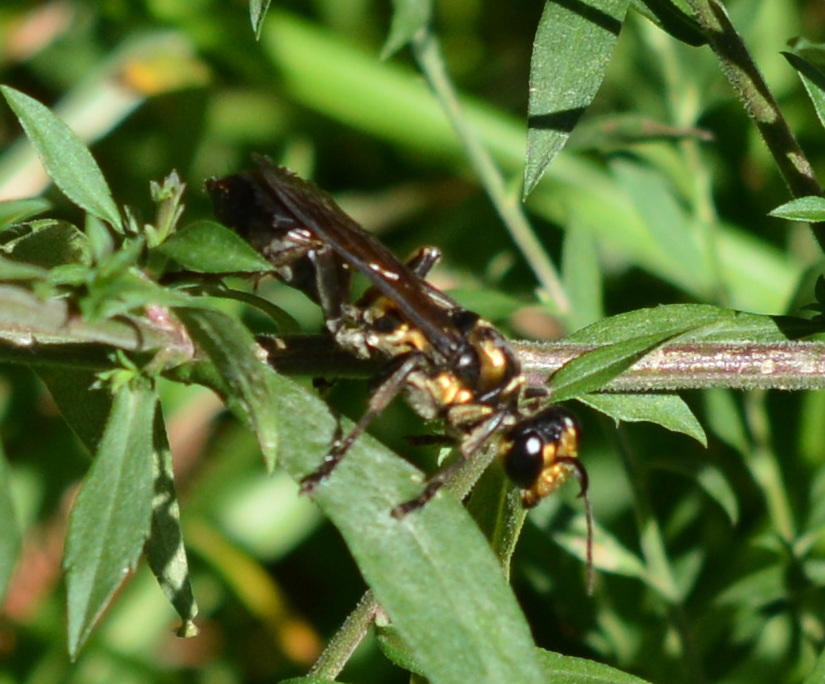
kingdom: Animalia
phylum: Arthropoda
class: Insecta
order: Hymenoptera
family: Sphecidae
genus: Sphex
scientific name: Sphex habenus
